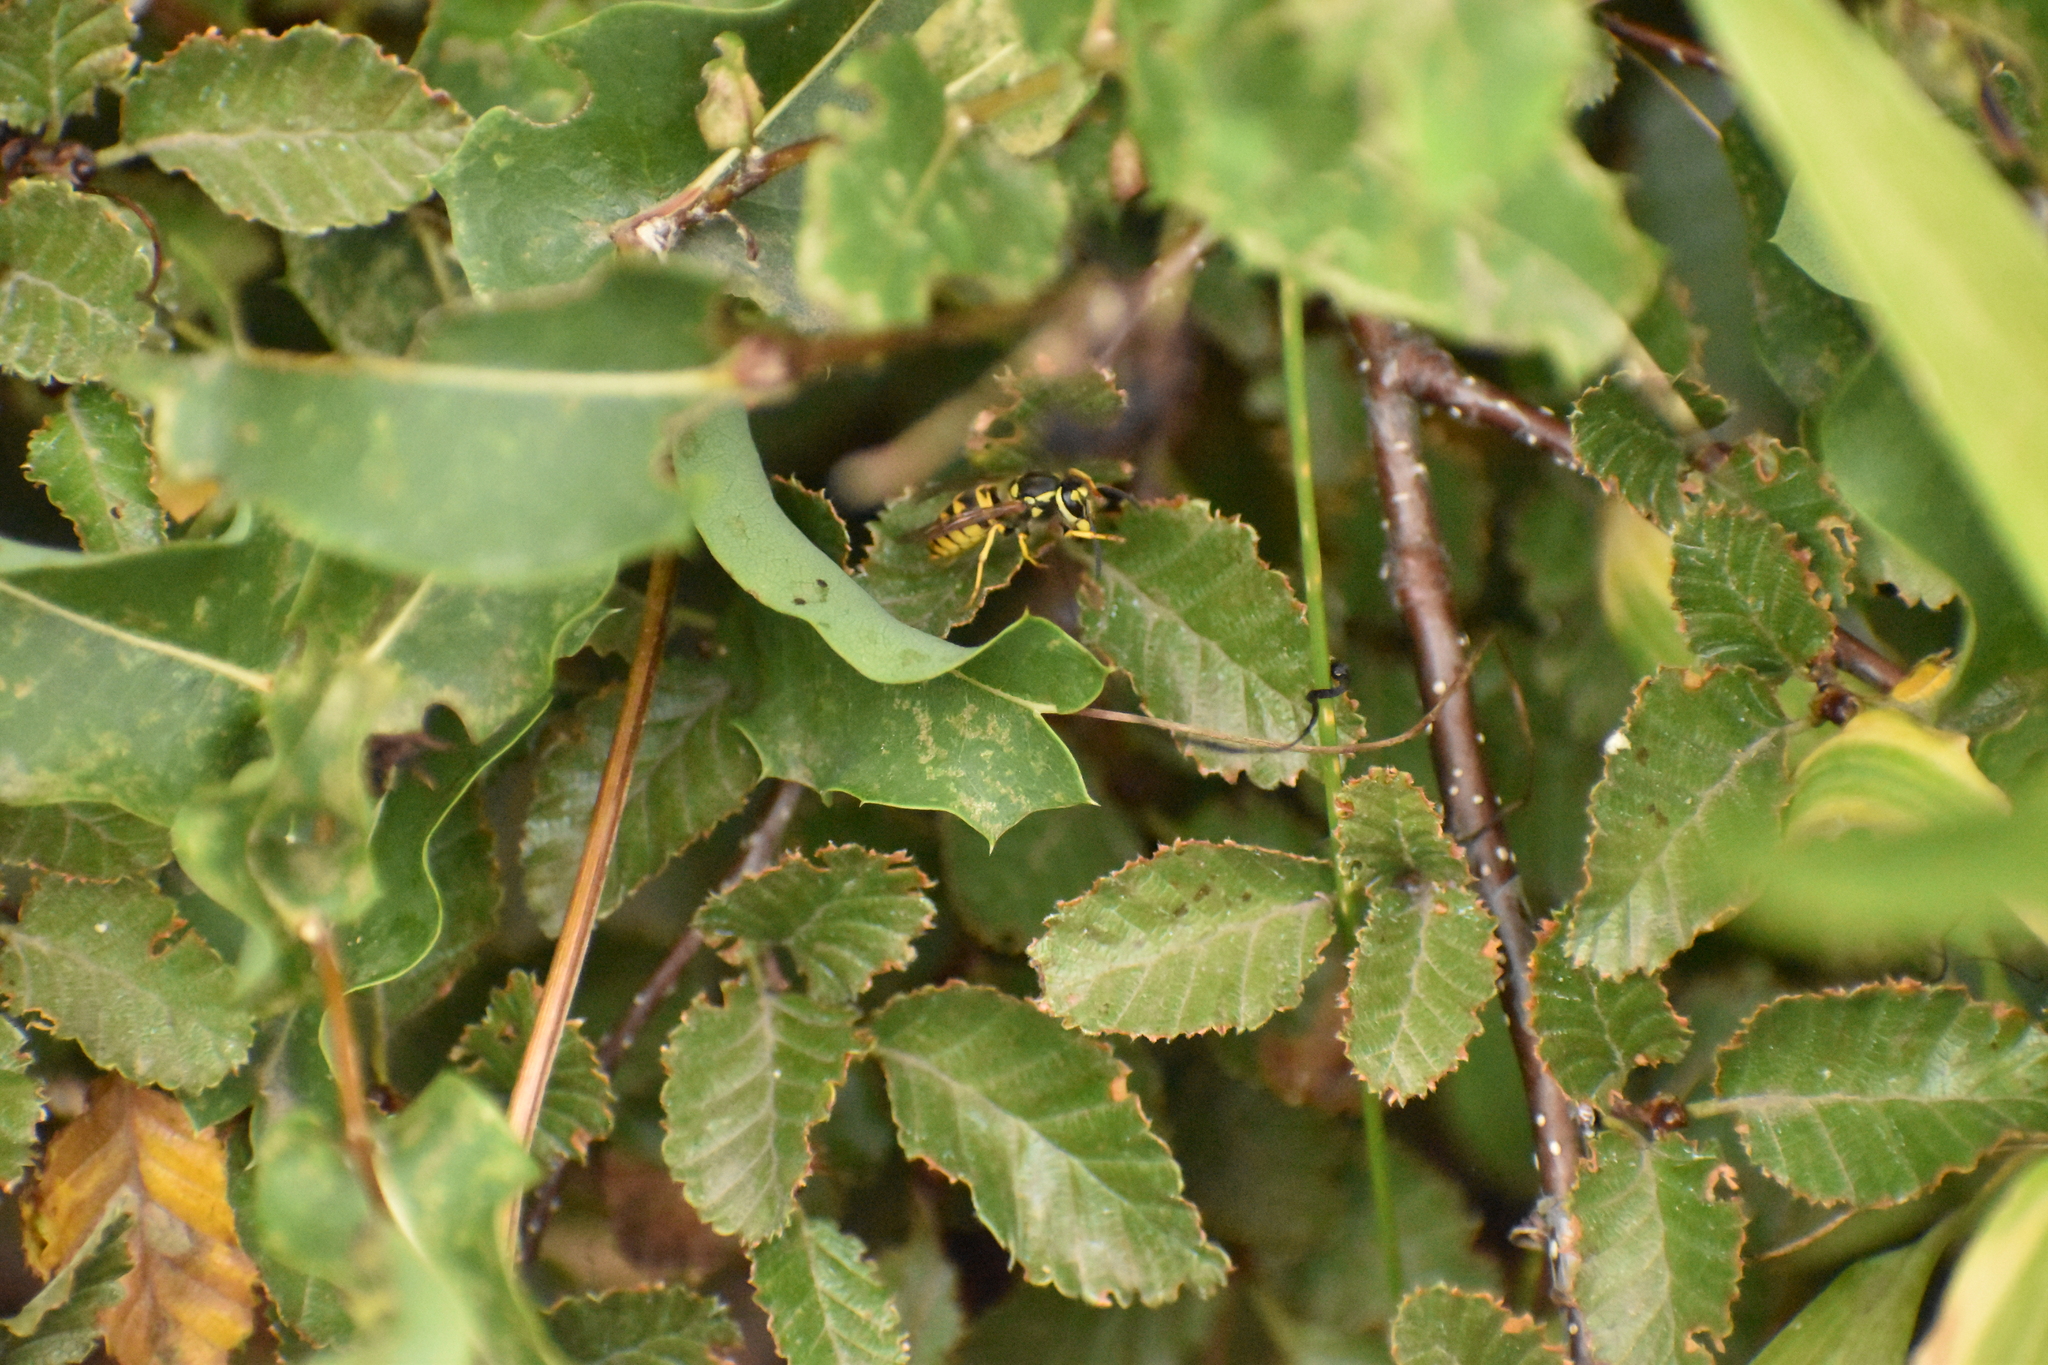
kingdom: Animalia
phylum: Arthropoda
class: Insecta
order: Hymenoptera
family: Vespidae
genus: Vespula
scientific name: Vespula germanica
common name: German wasp
